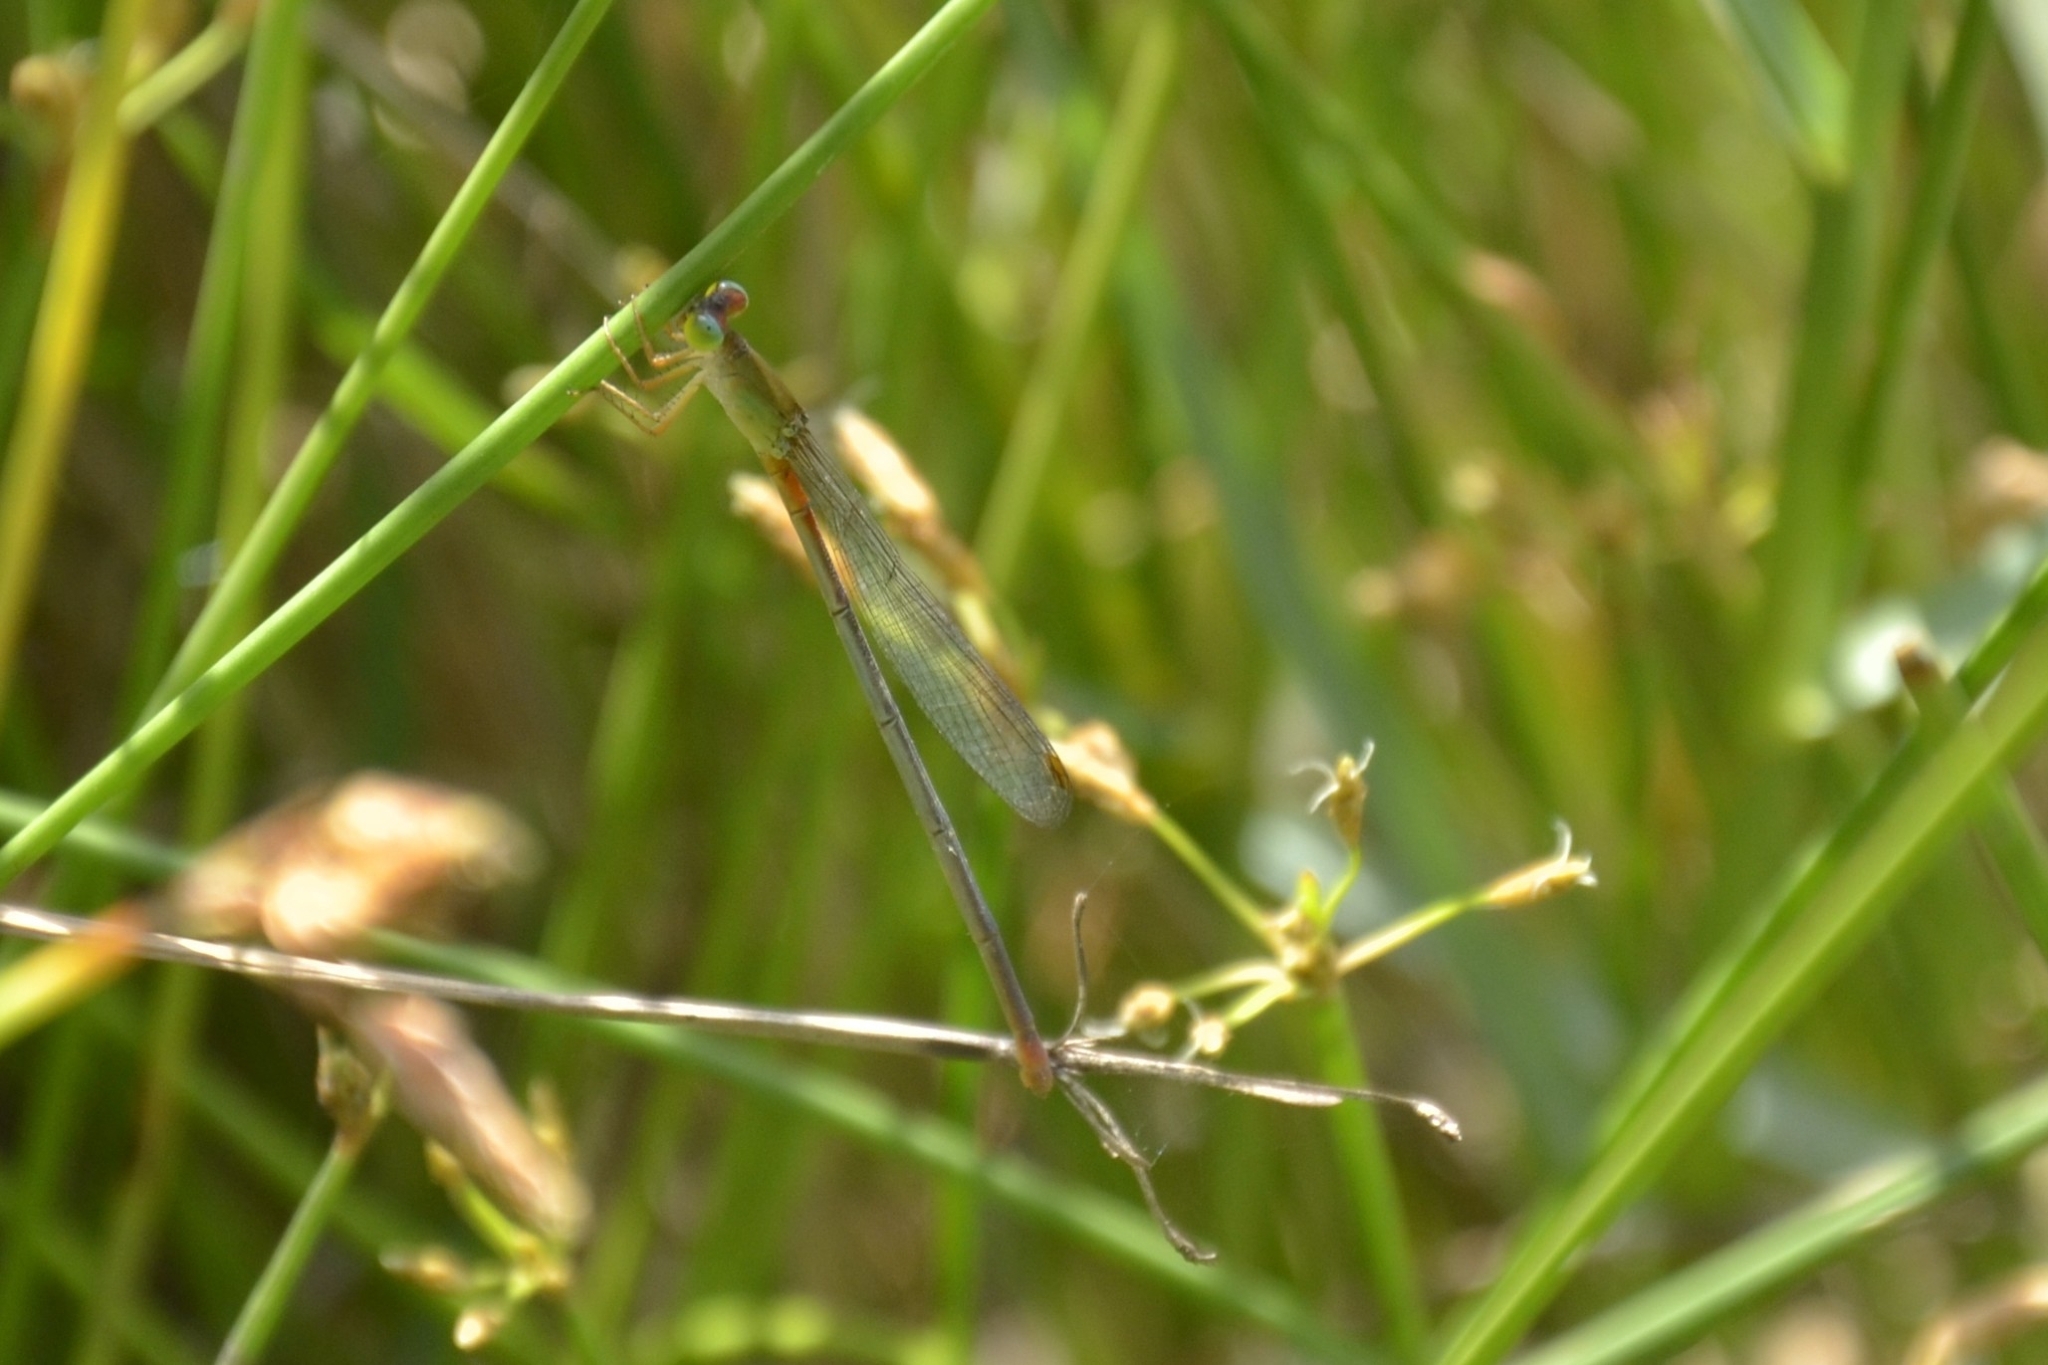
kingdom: Animalia
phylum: Arthropoda
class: Insecta
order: Odonata
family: Coenagrionidae
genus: Ceriagrion
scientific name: Ceriagrion cerinorubellum
